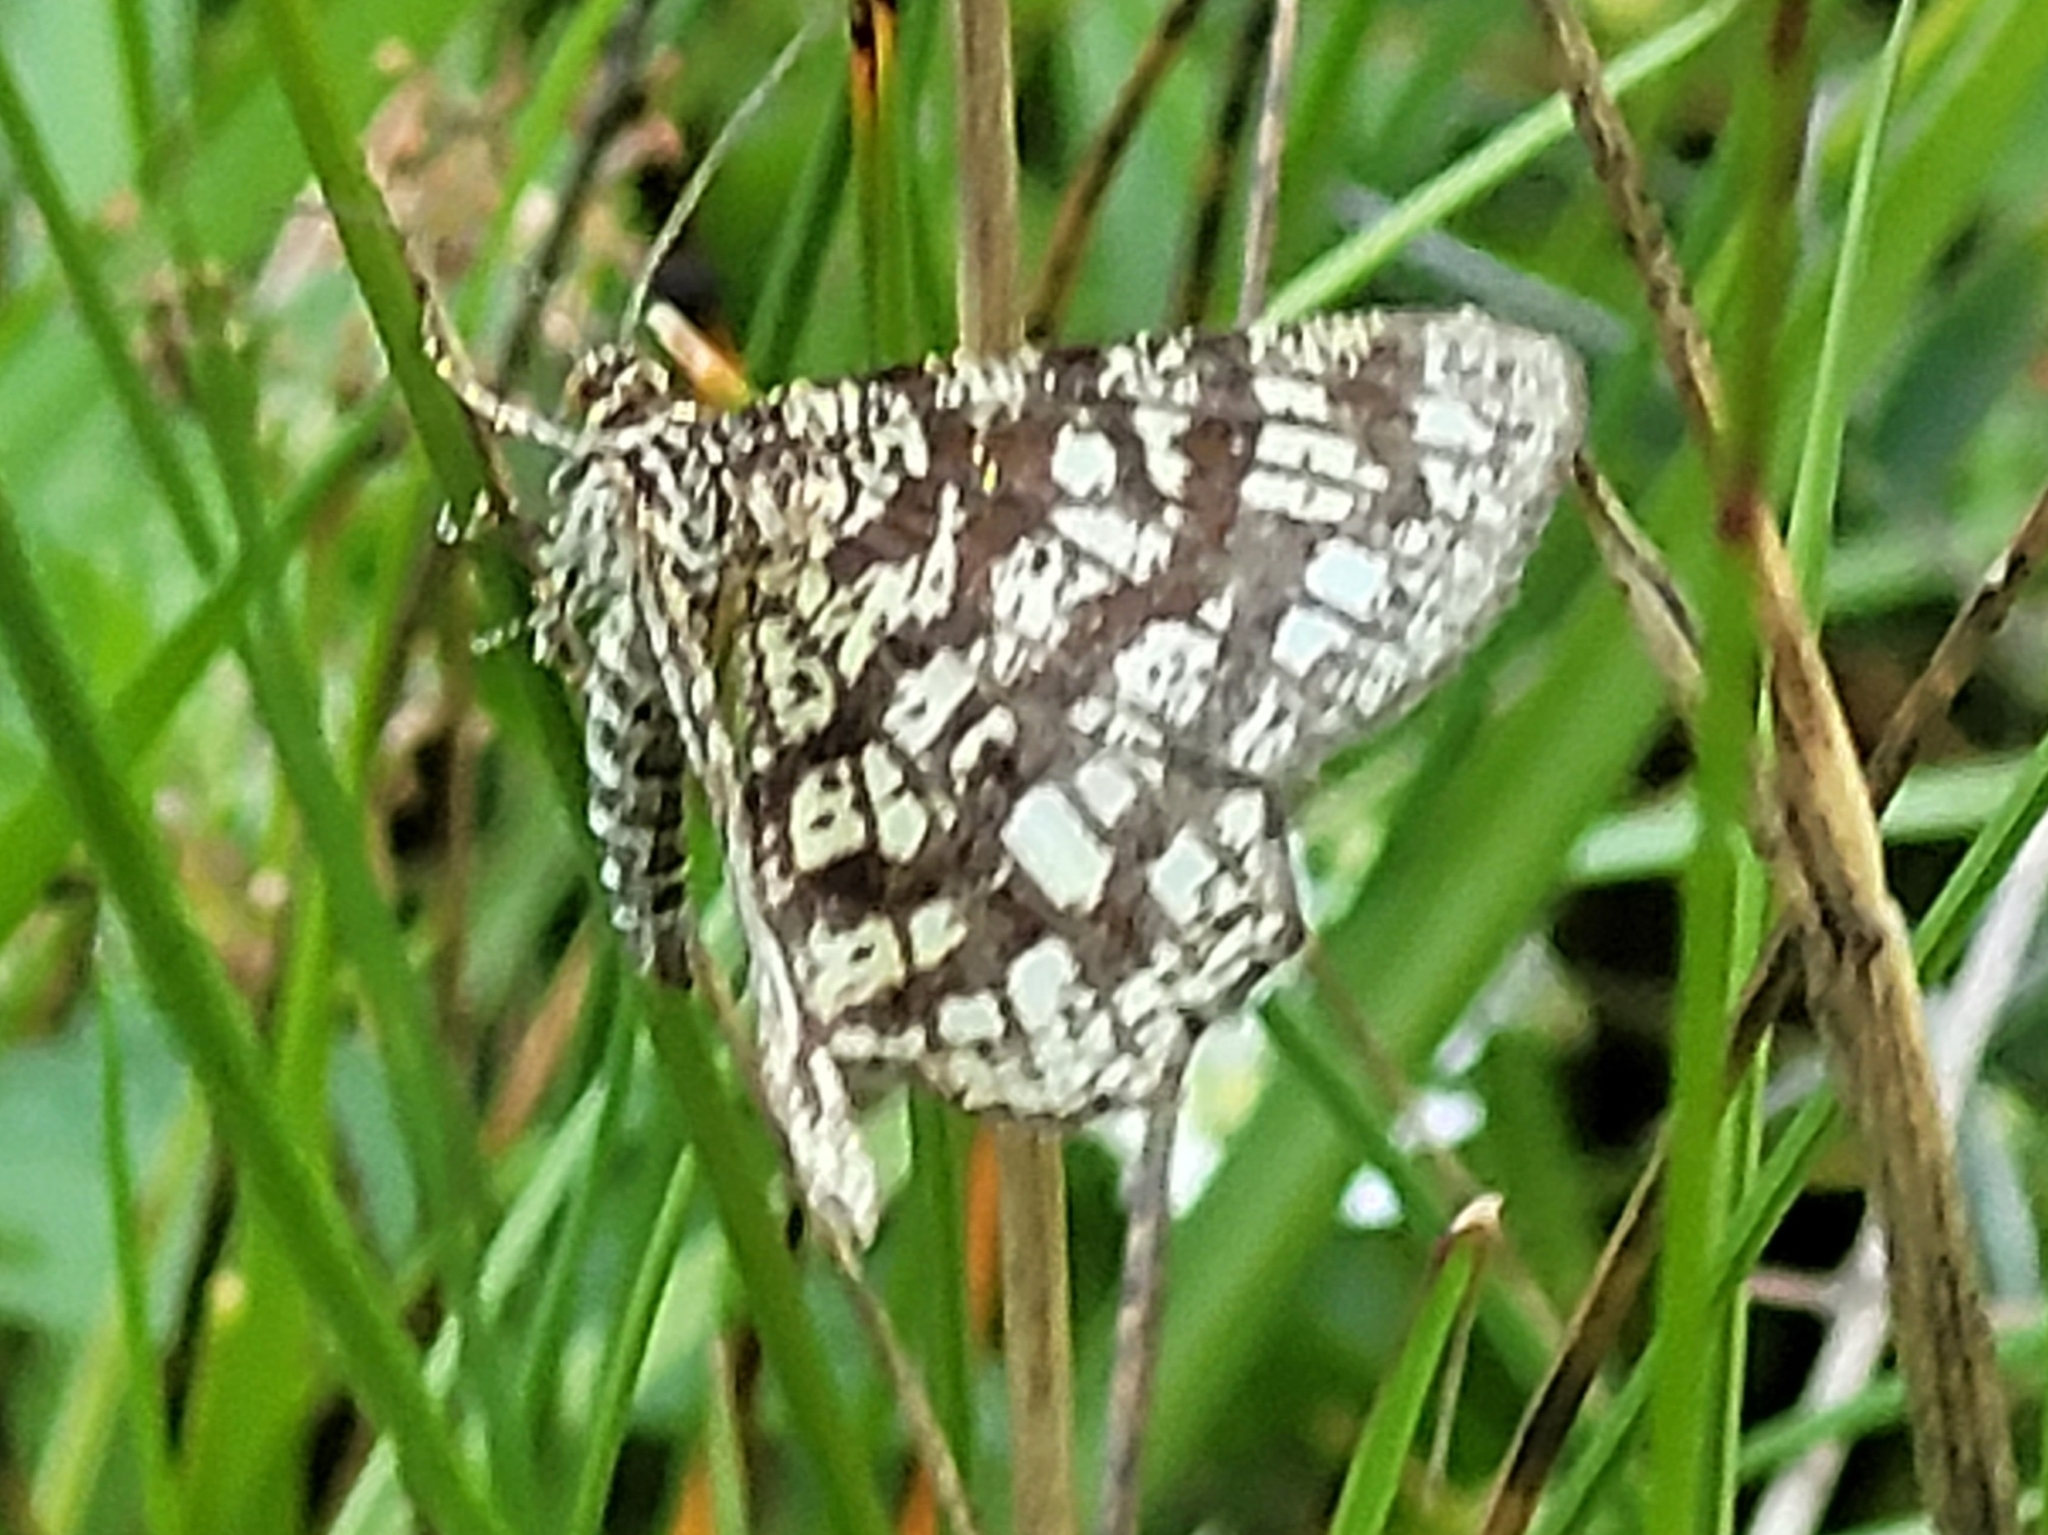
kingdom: Animalia
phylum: Arthropoda
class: Insecta
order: Lepidoptera
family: Geometridae
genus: Chiasmia
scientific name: Chiasmia clathrata
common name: Latticed heath
